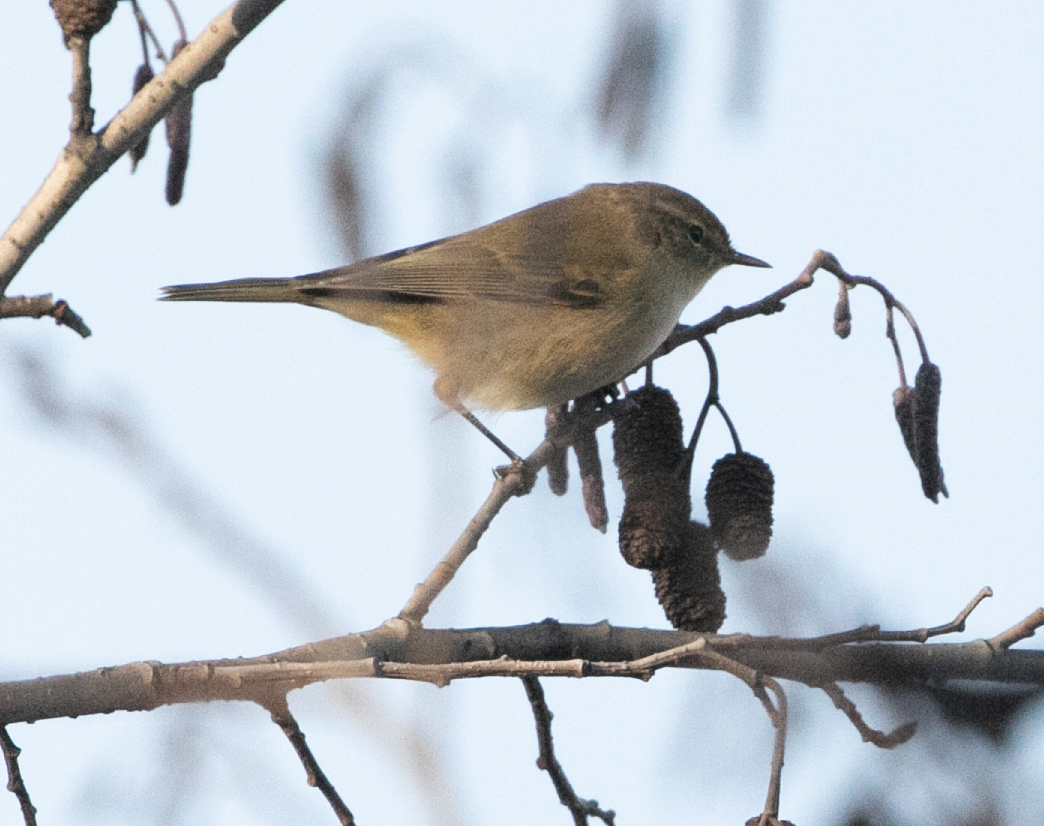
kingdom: Animalia
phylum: Chordata
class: Aves
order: Passeriformes
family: Phylloscopidae
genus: Phylloscopus
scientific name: Phylloscopus collybita
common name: Common chiffchaff
